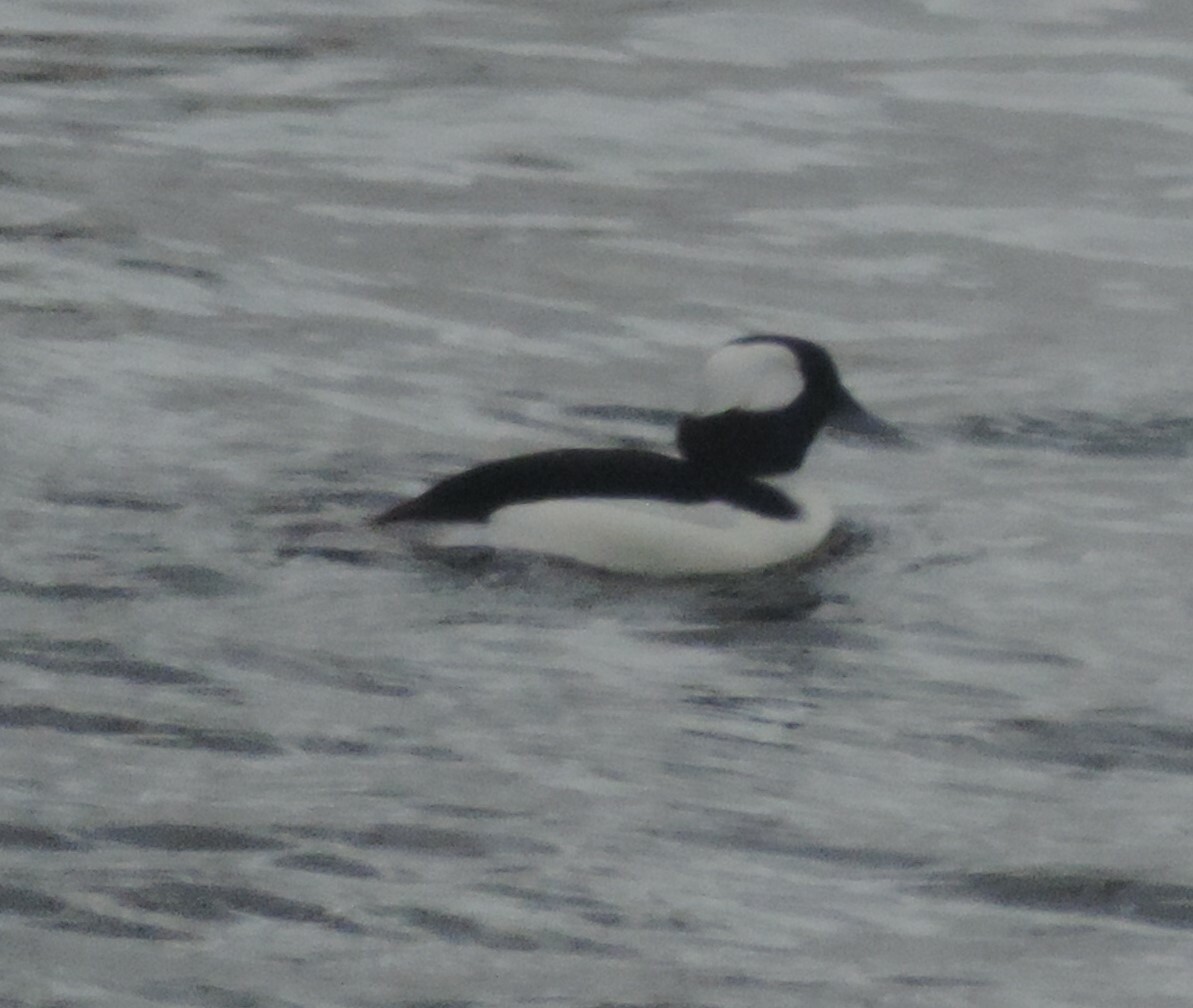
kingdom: Animalia
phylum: Chordata
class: Aves
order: Anseriformes
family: Anatidae
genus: Bucephala
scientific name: Bucephala albeola
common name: Bufflehead
